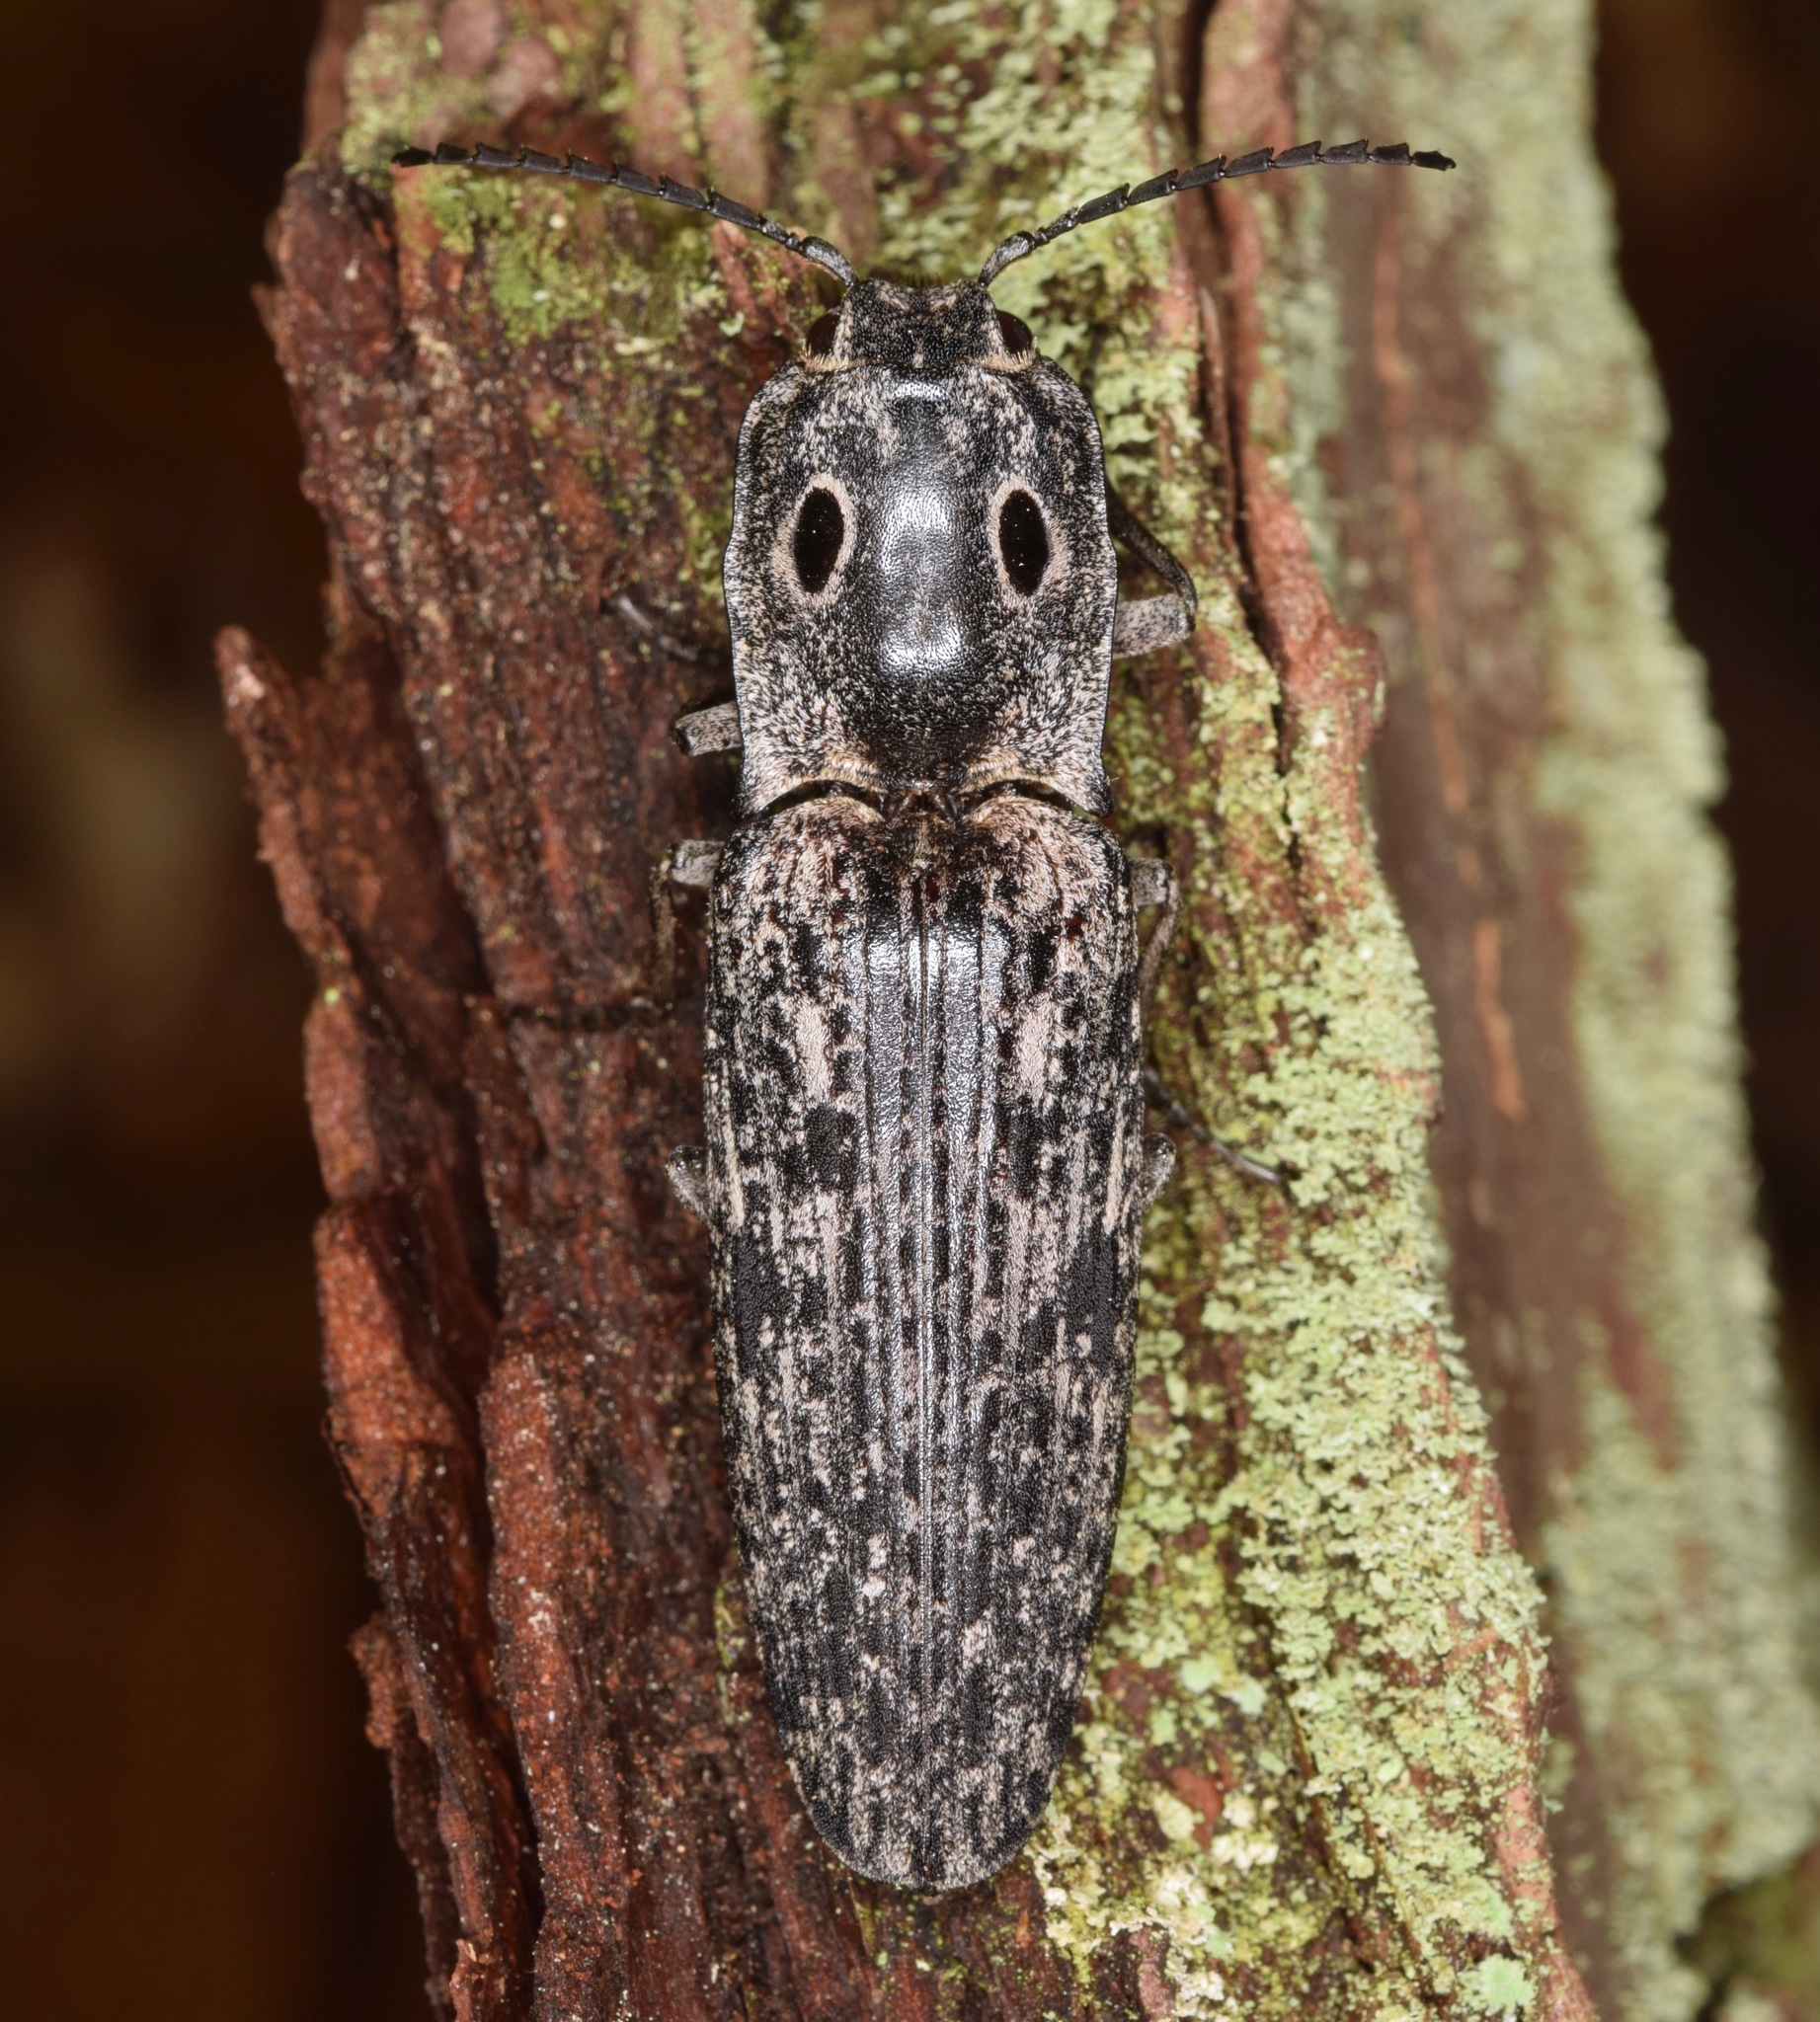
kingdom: Animalia
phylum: Arthropoda
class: Insecta
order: Coleoptera
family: Elateridae
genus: Alaus
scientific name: Alaus myops
